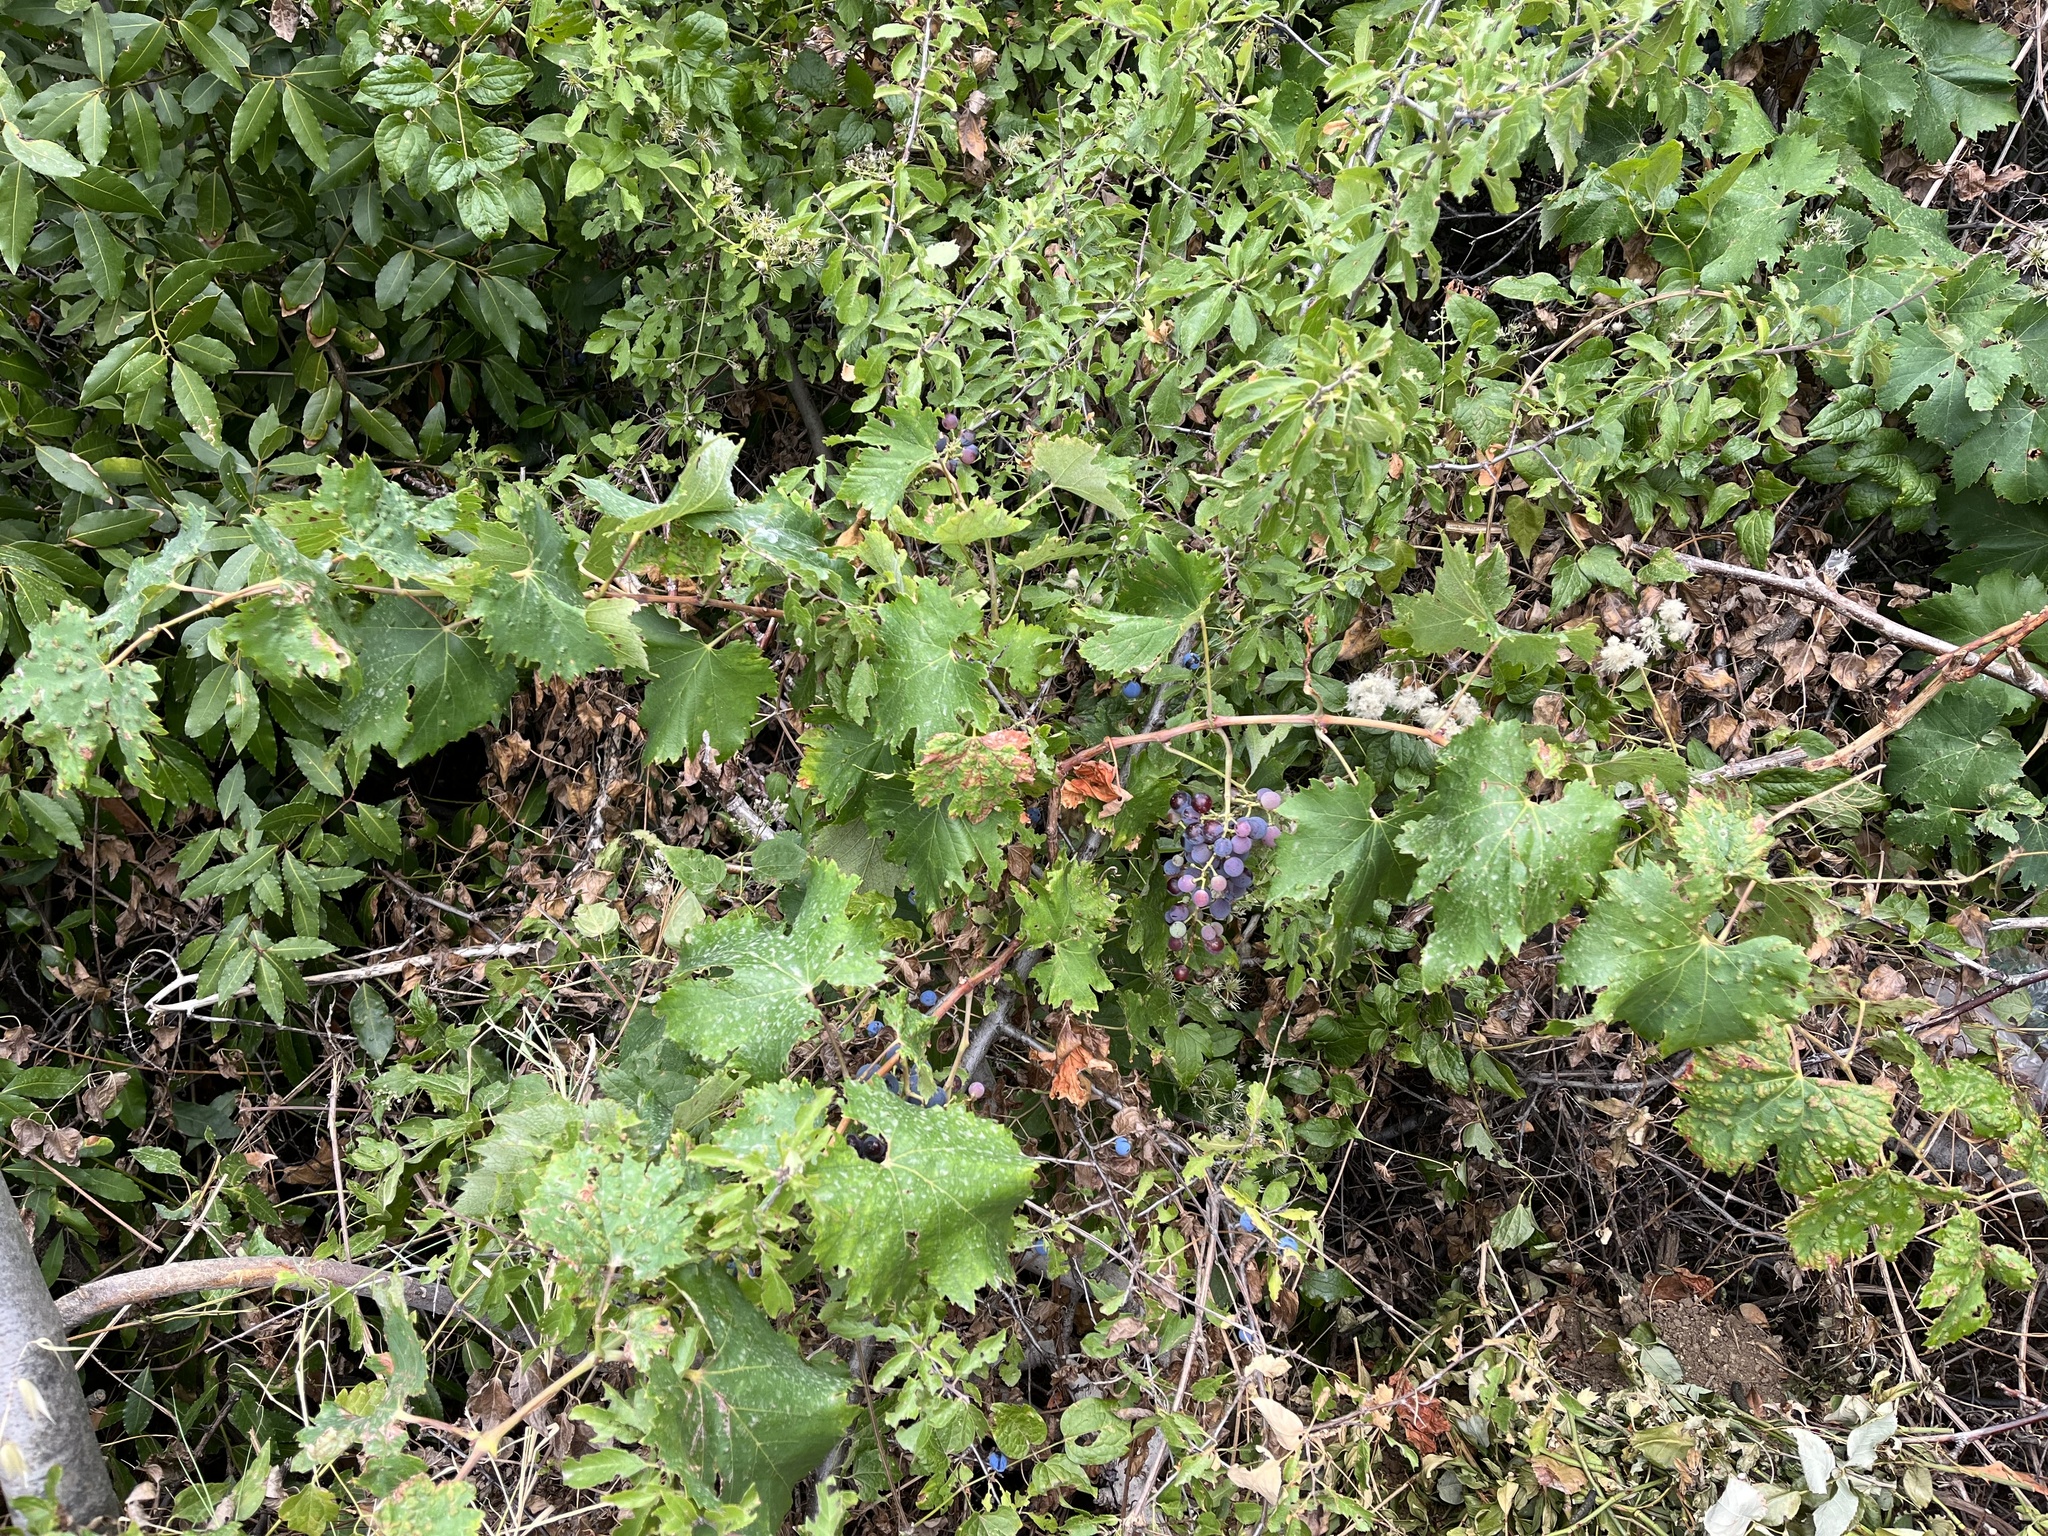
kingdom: Plantae
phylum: Tracheophyta
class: Magnoliopsida
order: Vitales
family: Vitaceae
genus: Vitis
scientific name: Vitis vinifera
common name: Grape-vine
